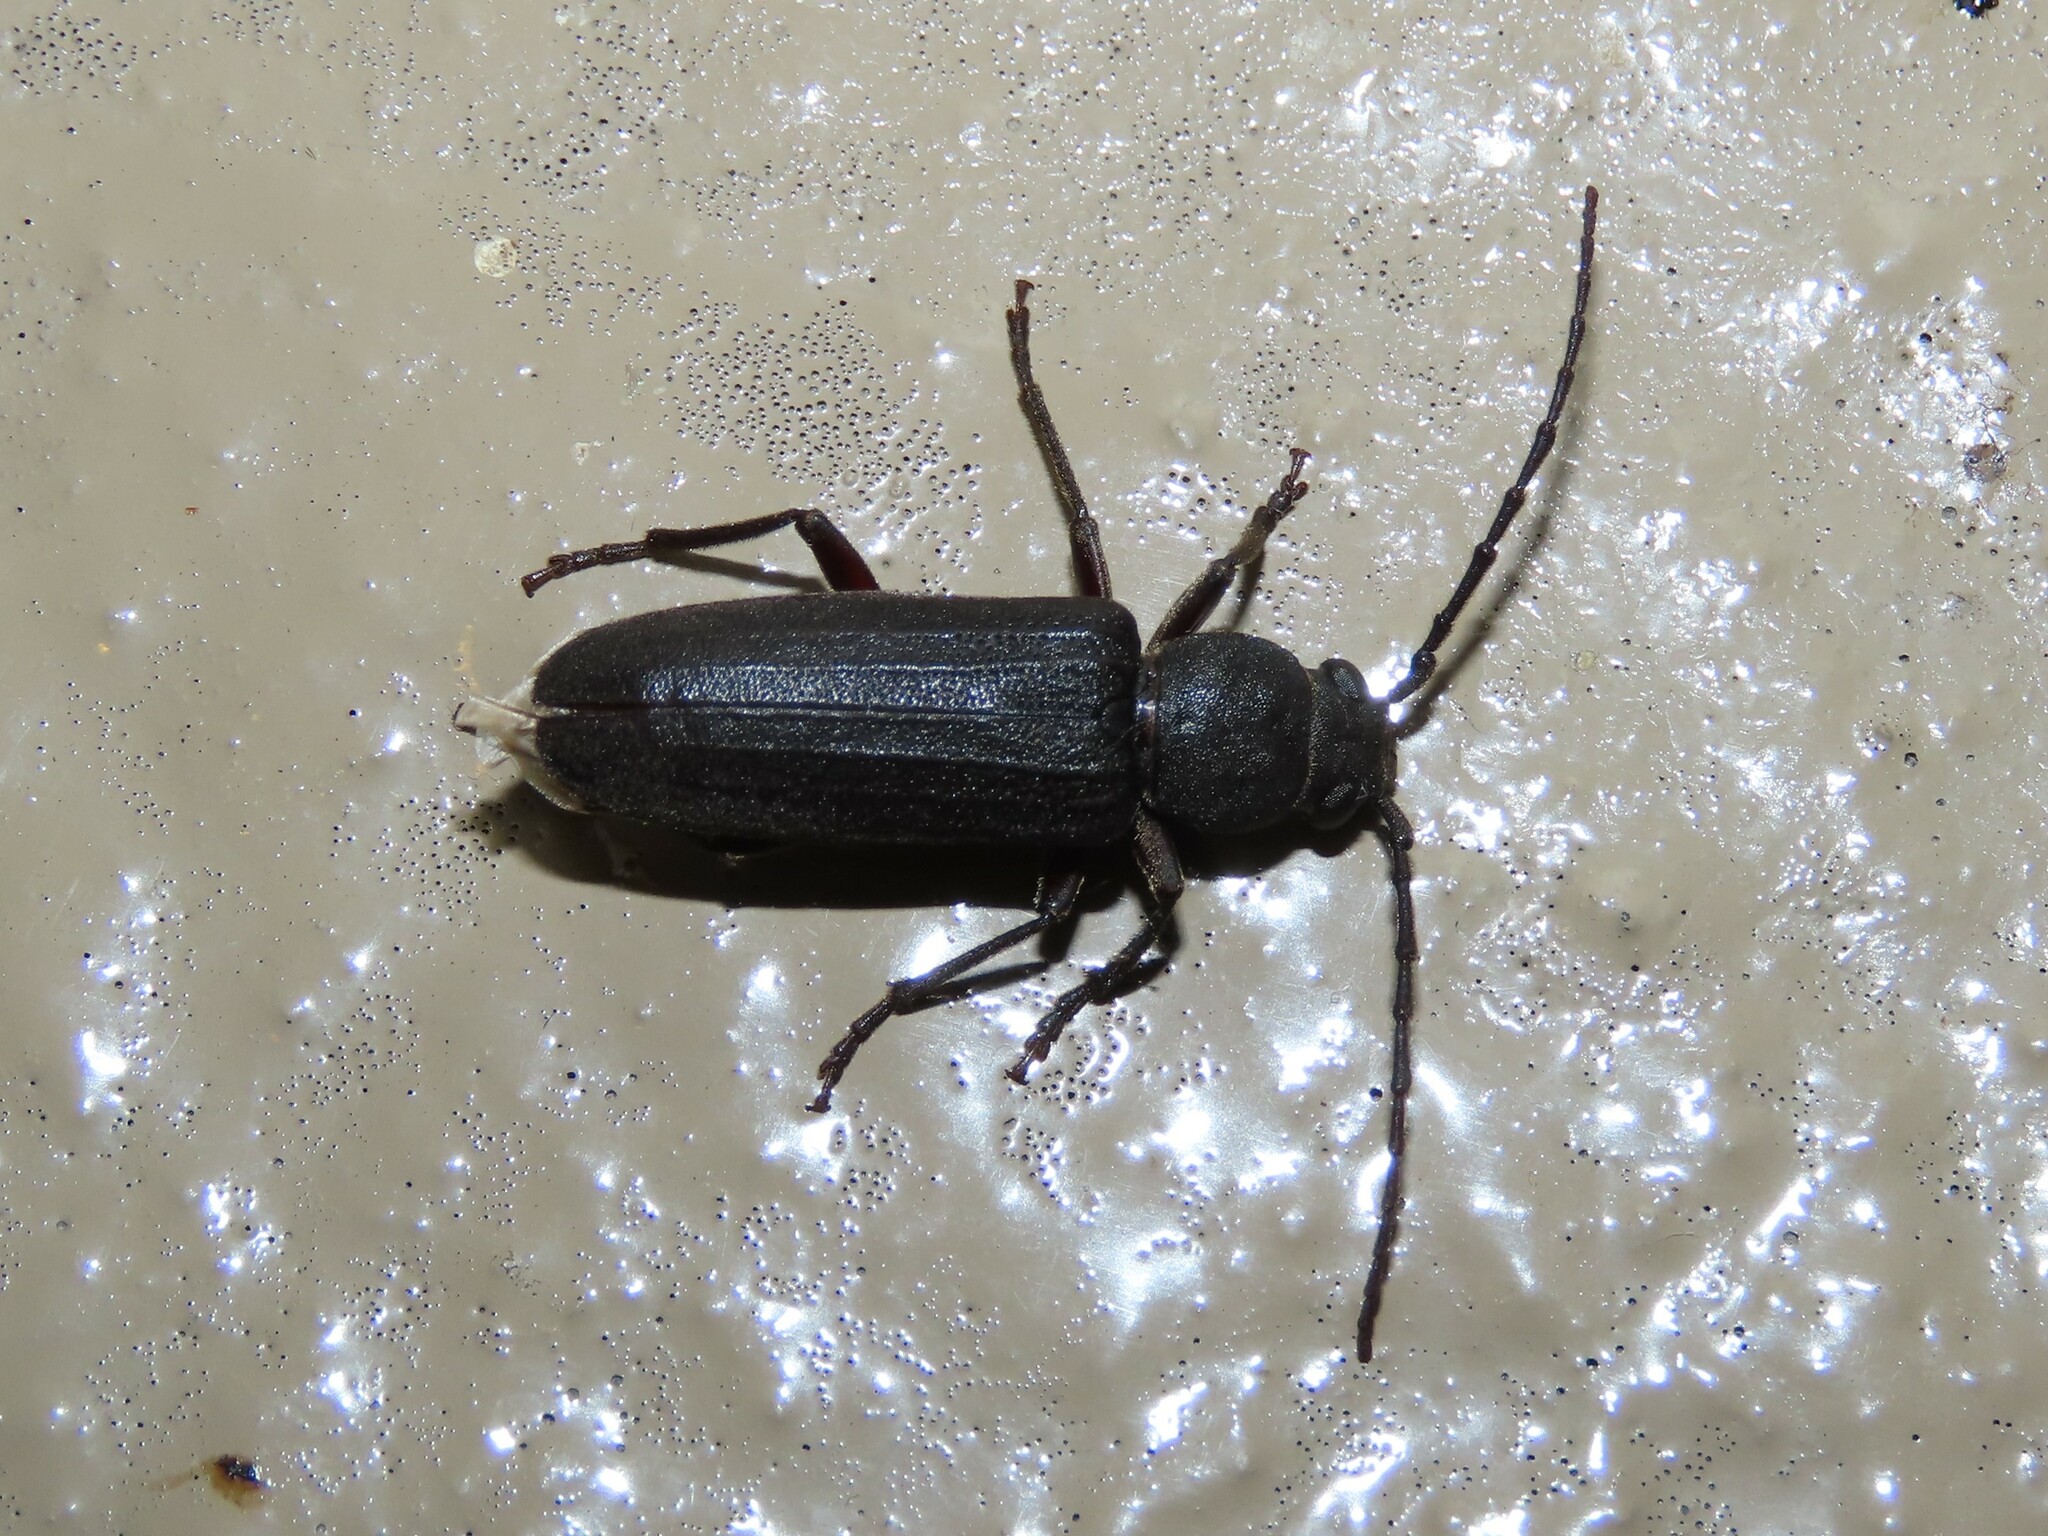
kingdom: Animalia
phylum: Arthropoda
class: Insecta
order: Coleoptera
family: Cerambycidae
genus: Asemum
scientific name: Asemum australe
